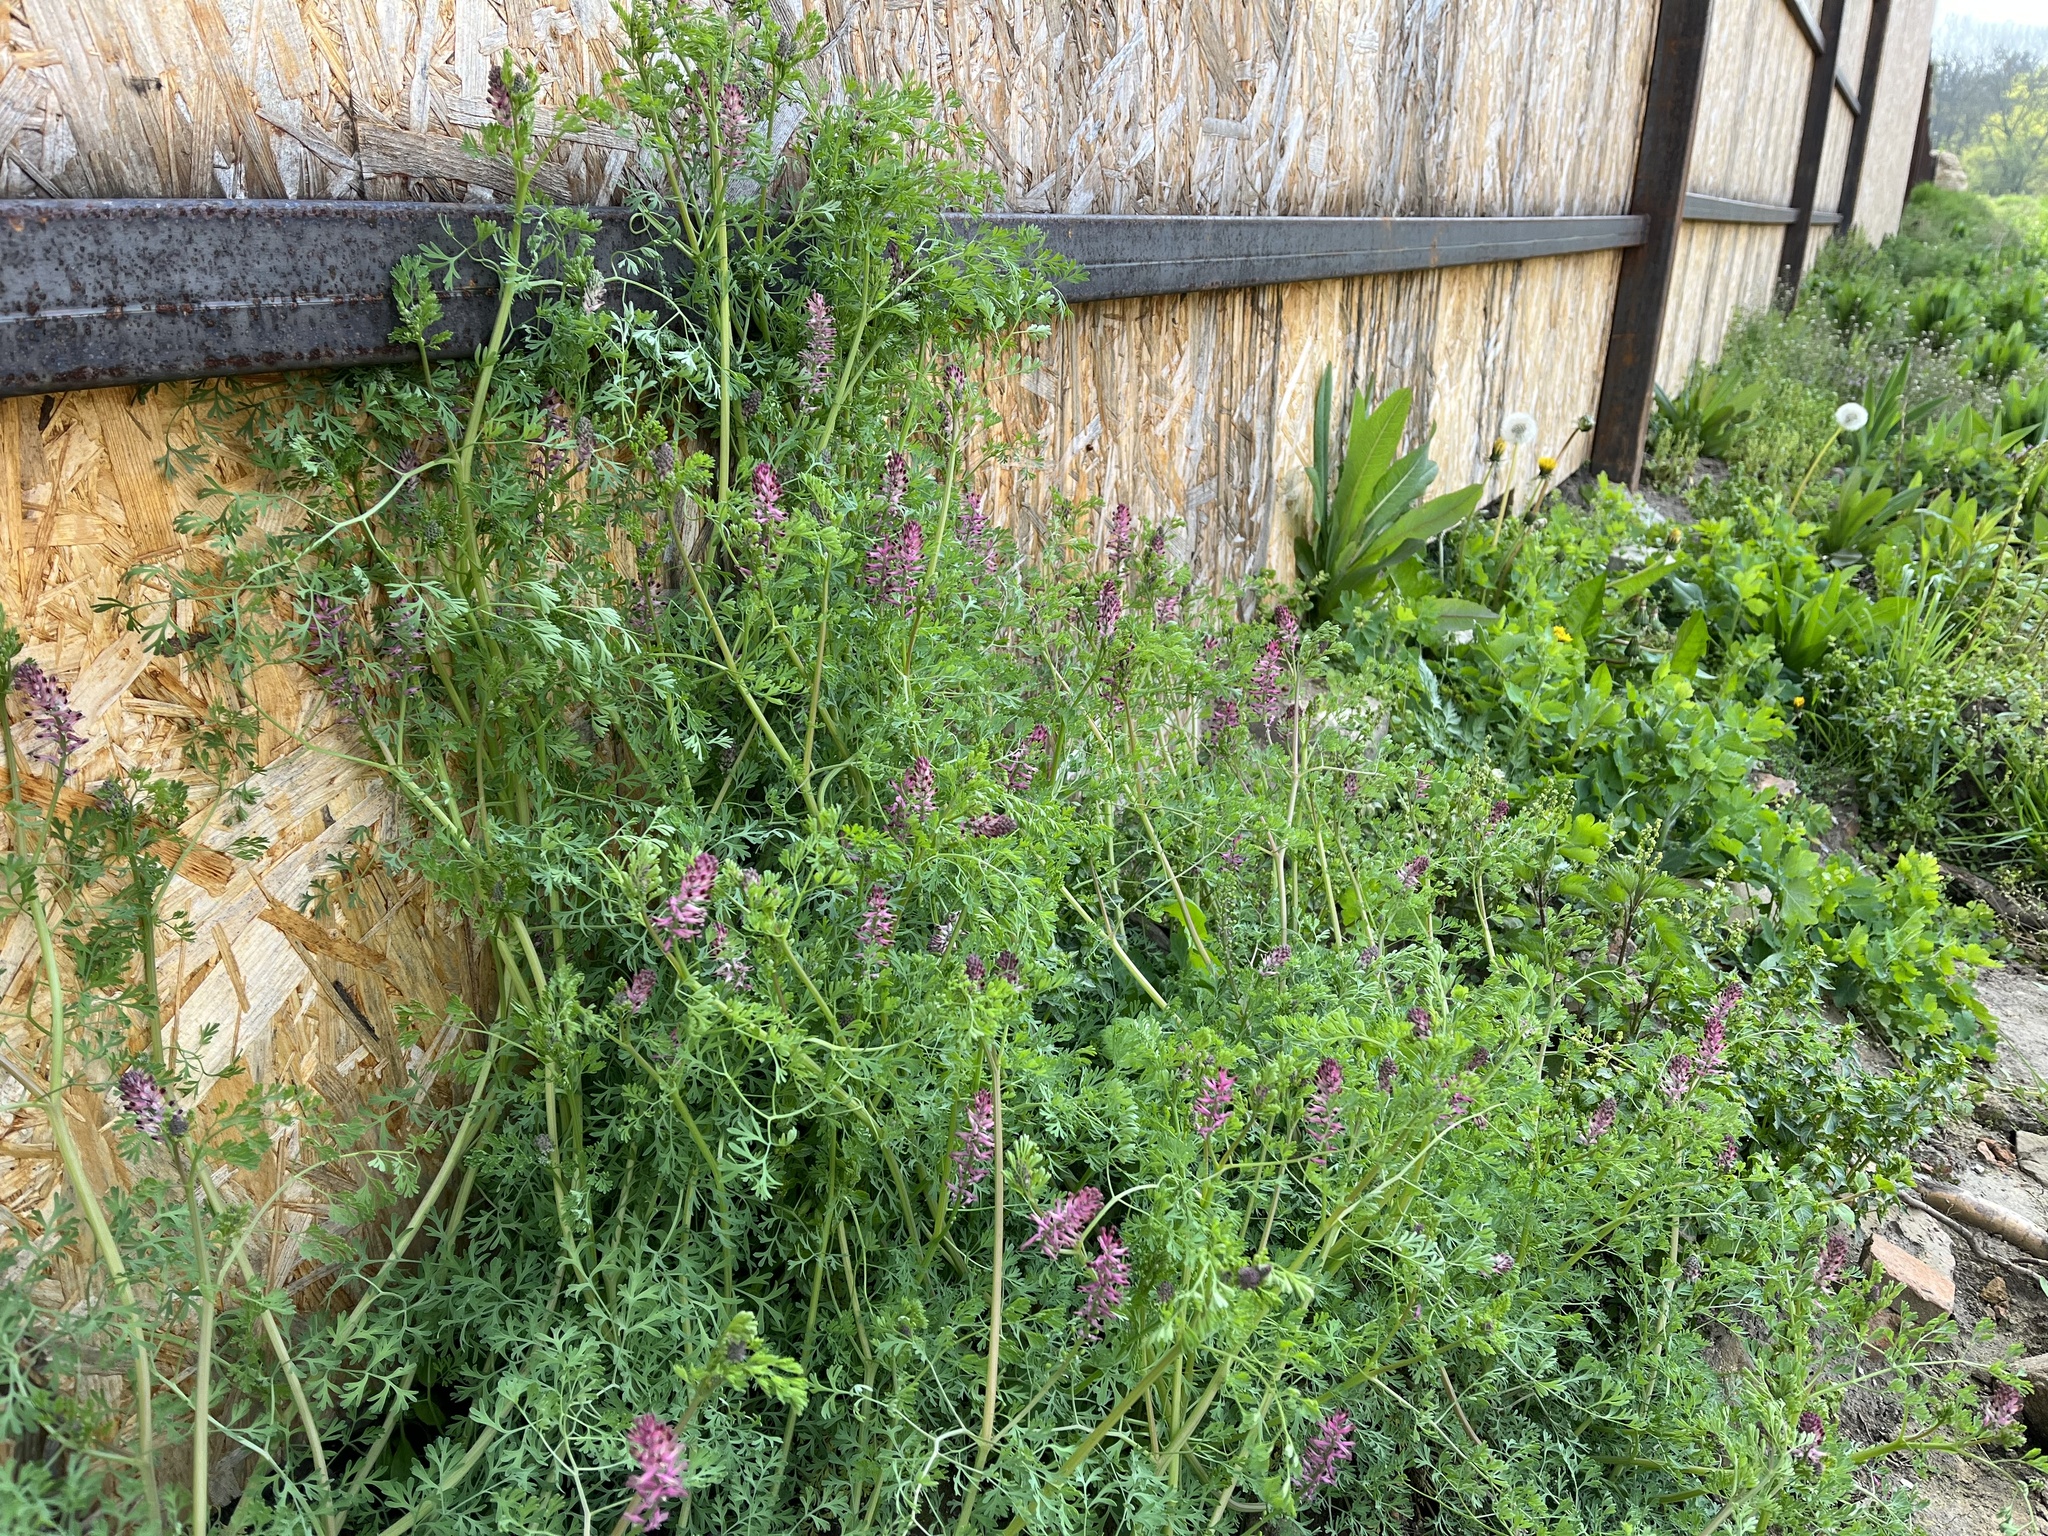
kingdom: Plantae
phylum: Tracheophyta
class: Magnoliopsida
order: Ranunculales
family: Papaveraceae
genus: Fumaria
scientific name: Fumaria officinalis
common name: Common fumitory
